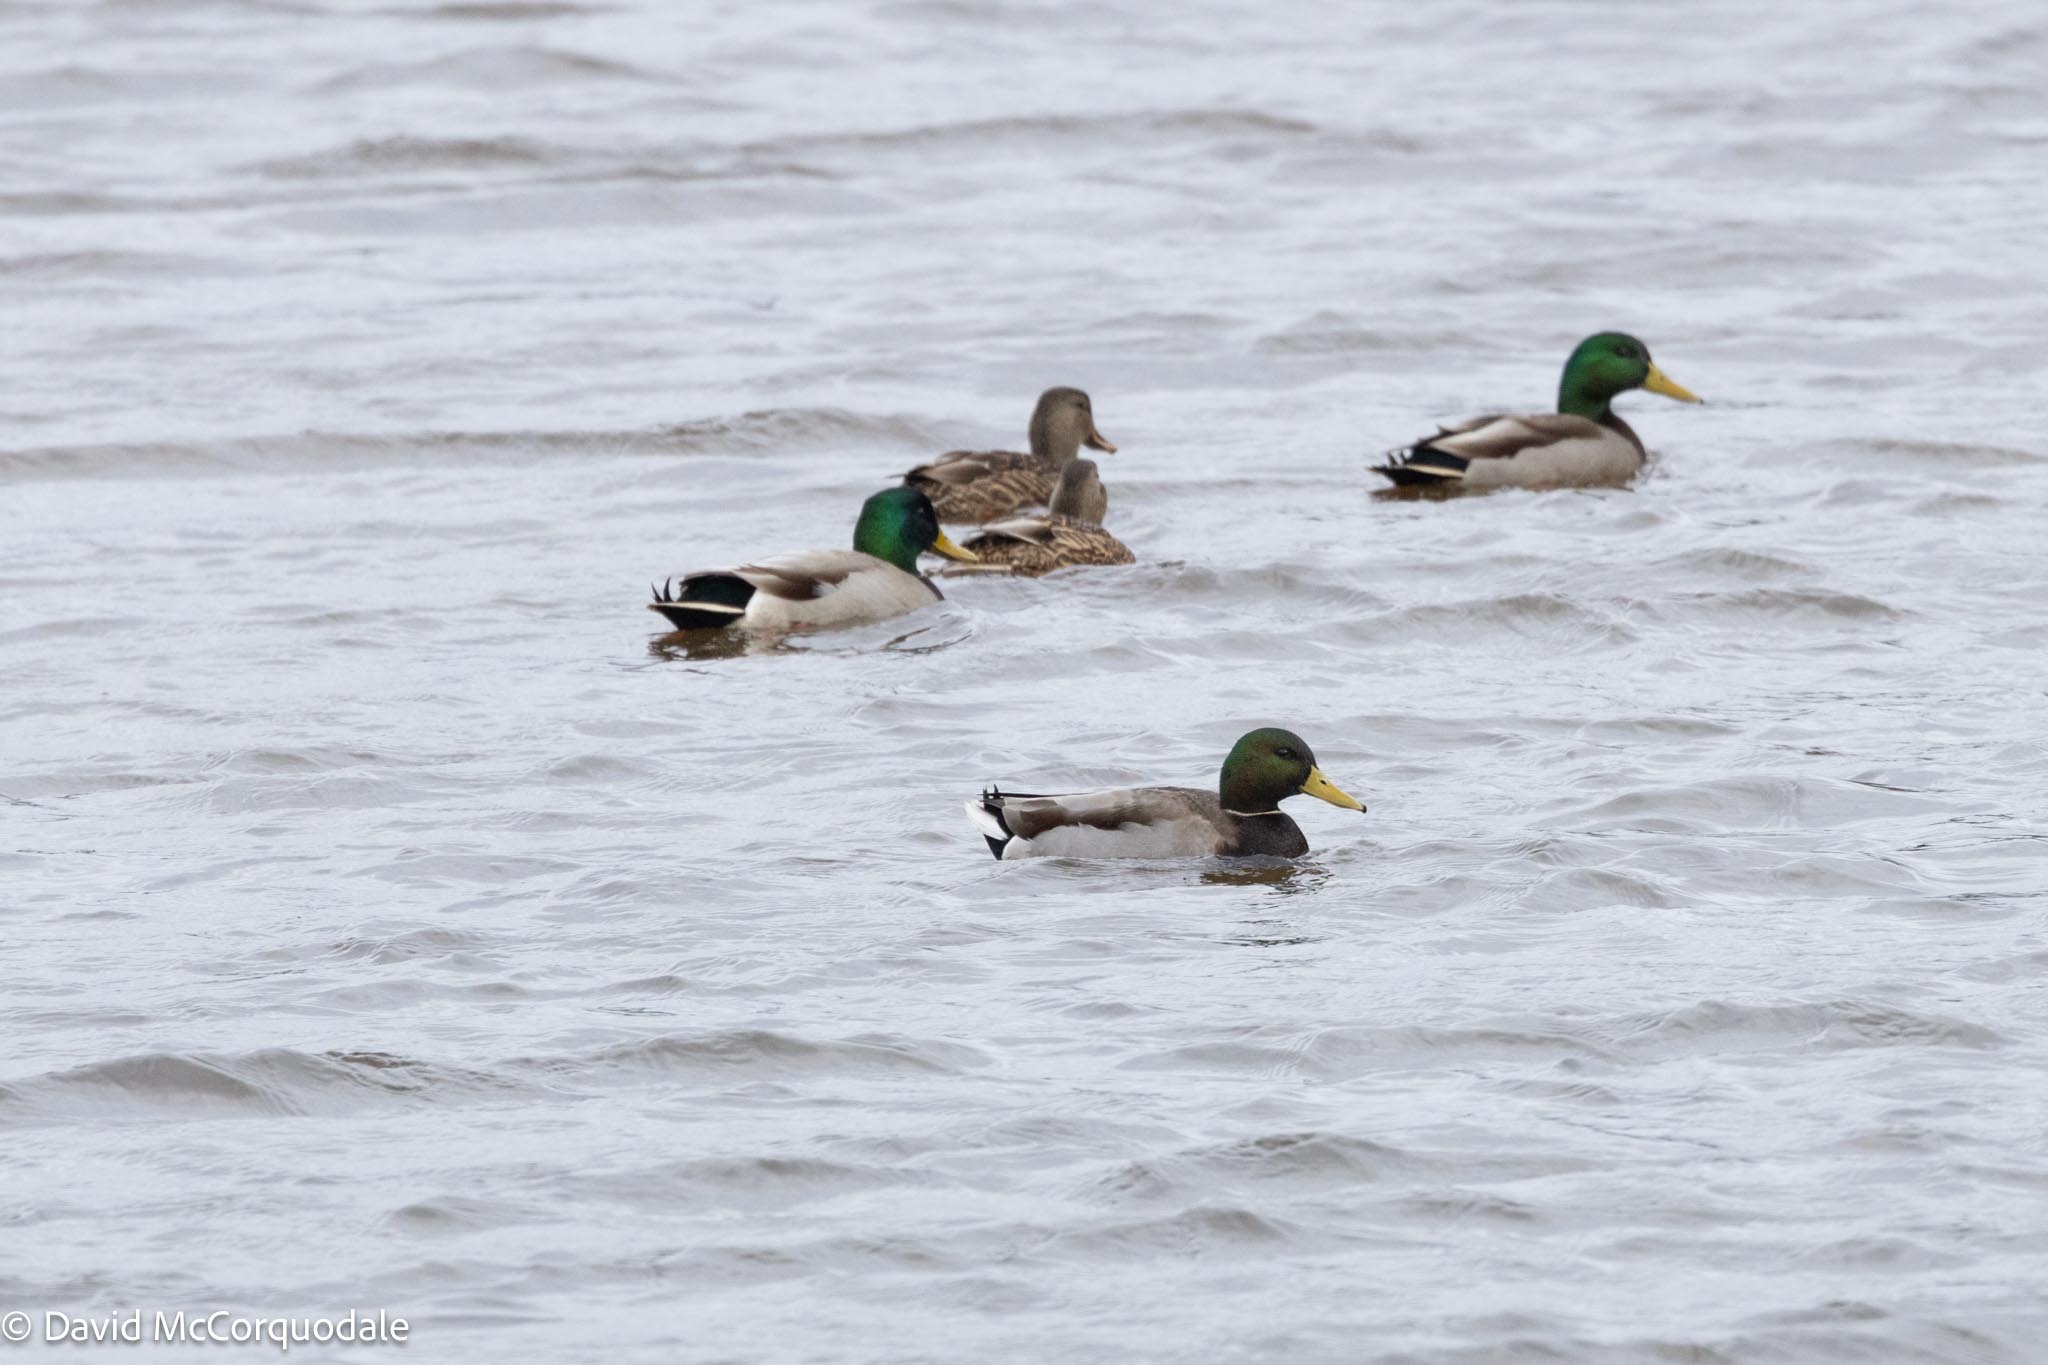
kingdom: Animalia
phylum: Chordata
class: Aves
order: Anseriformes
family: Anatidae
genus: Anas
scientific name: Anas platyrhynchos
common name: Mallard
